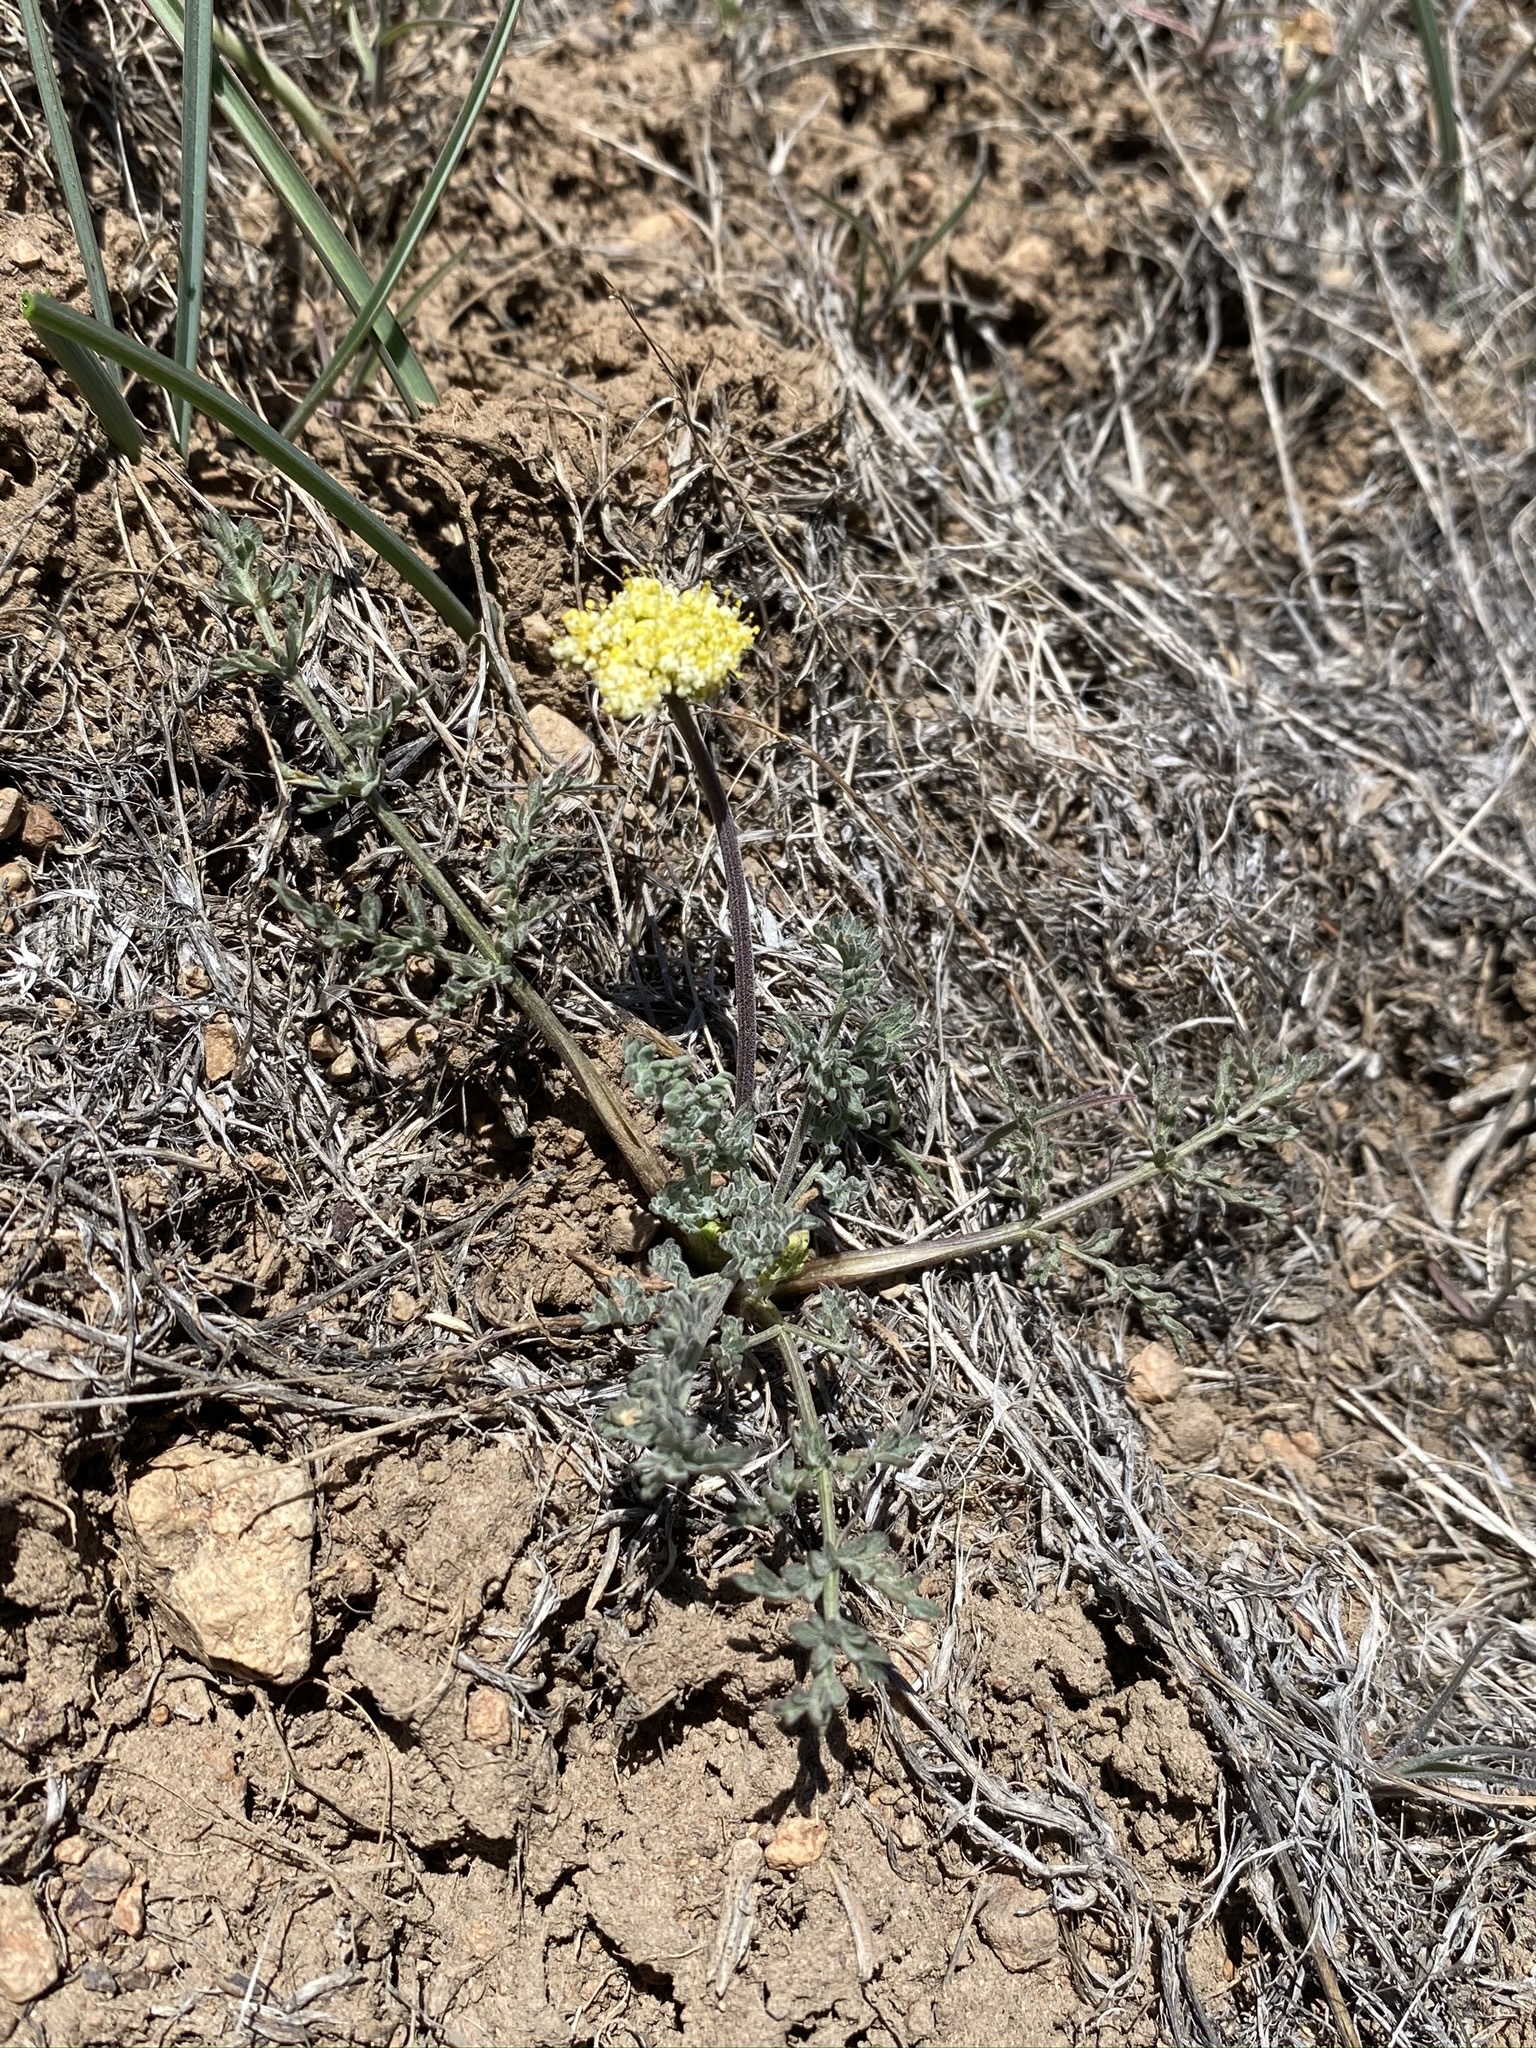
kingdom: Plantae
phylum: Tracheophyta
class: Magnoliopsida
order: Apiales
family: Apiaceae
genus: Lomatium
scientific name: Lomatium austiniae
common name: Plumas lomatium
